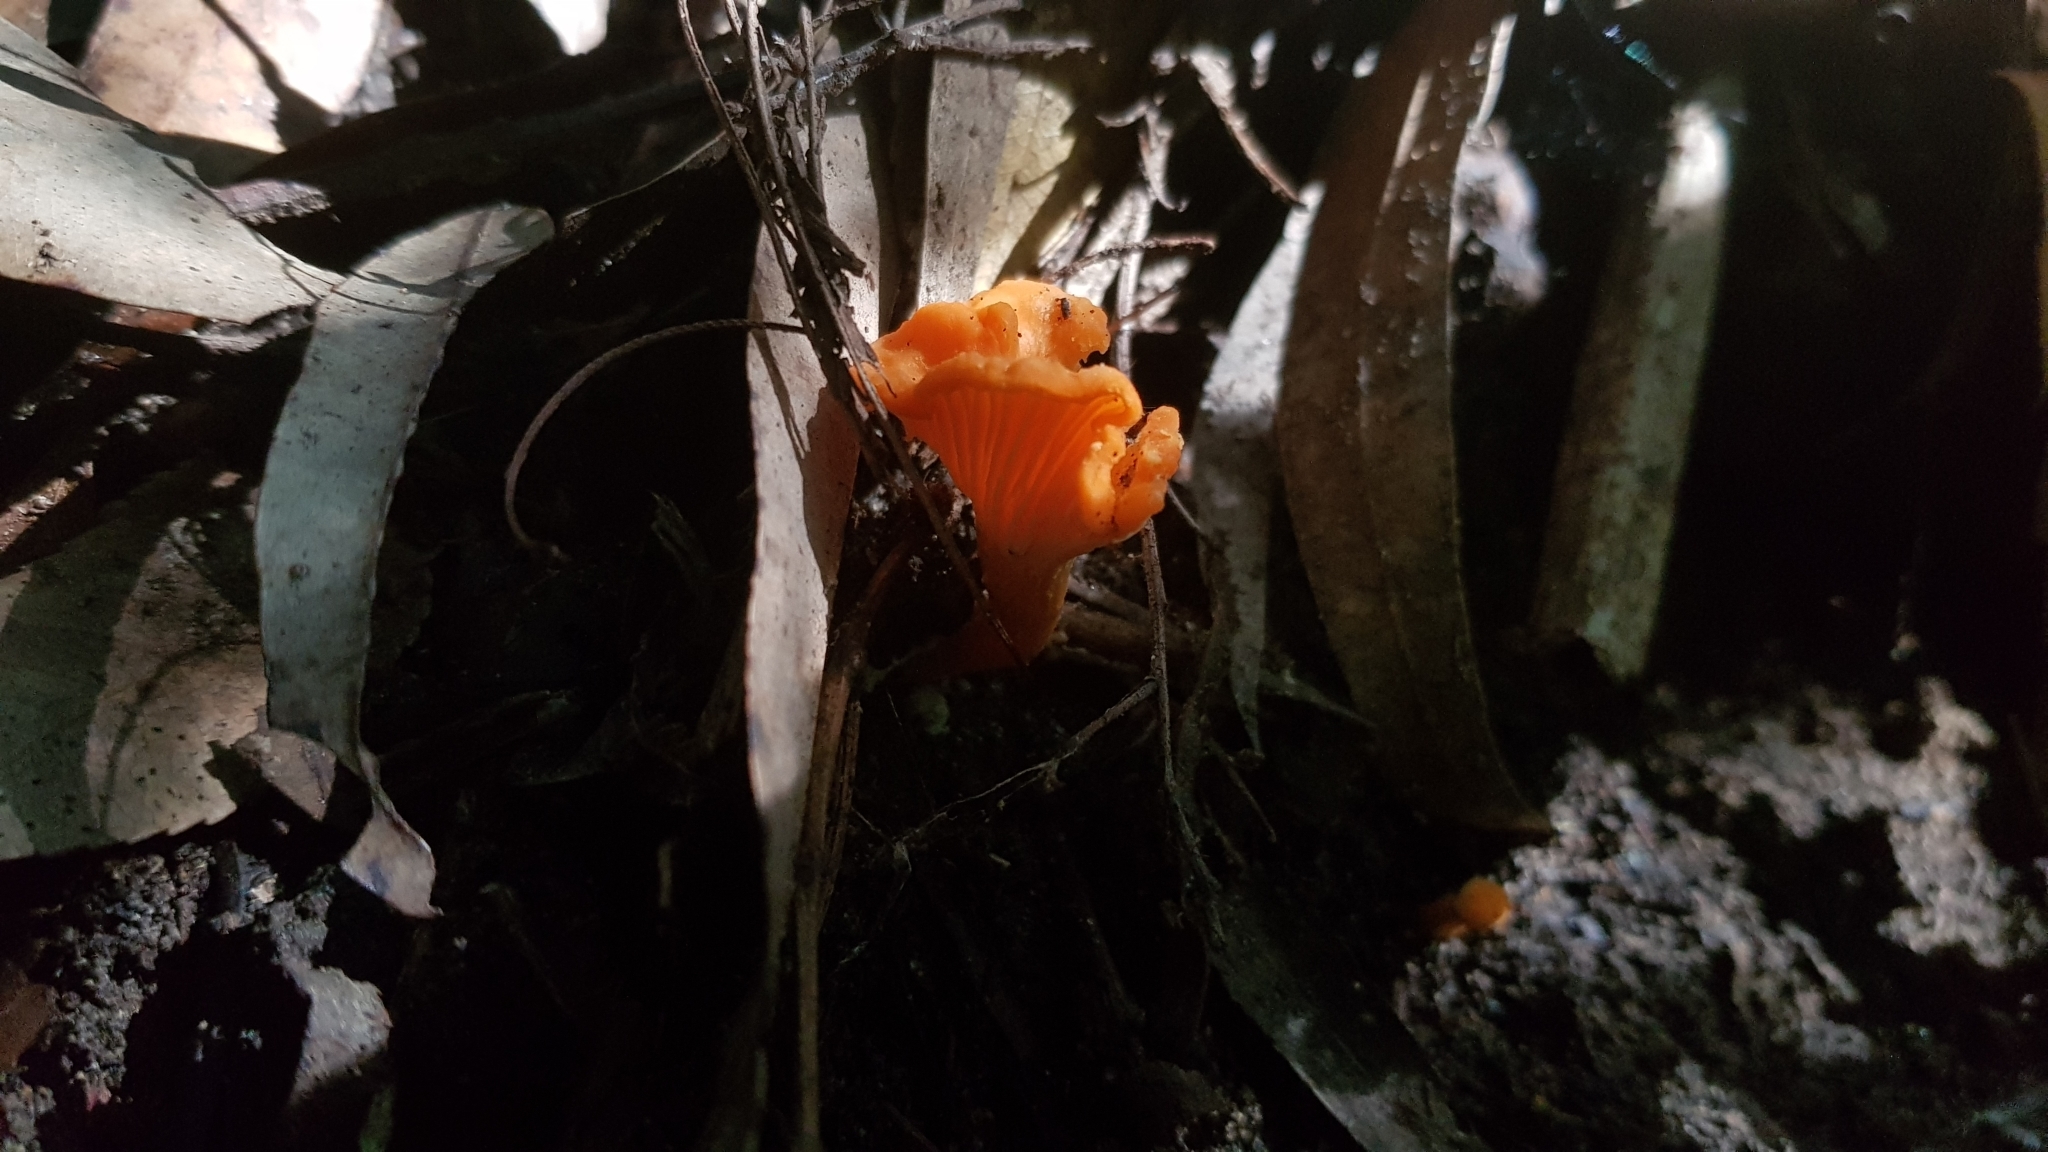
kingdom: Fungi
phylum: Basidiomycota
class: Agaricomycetes
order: Cantharellales
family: Hydnaceae
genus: Cantharellus
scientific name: Cantharellus
